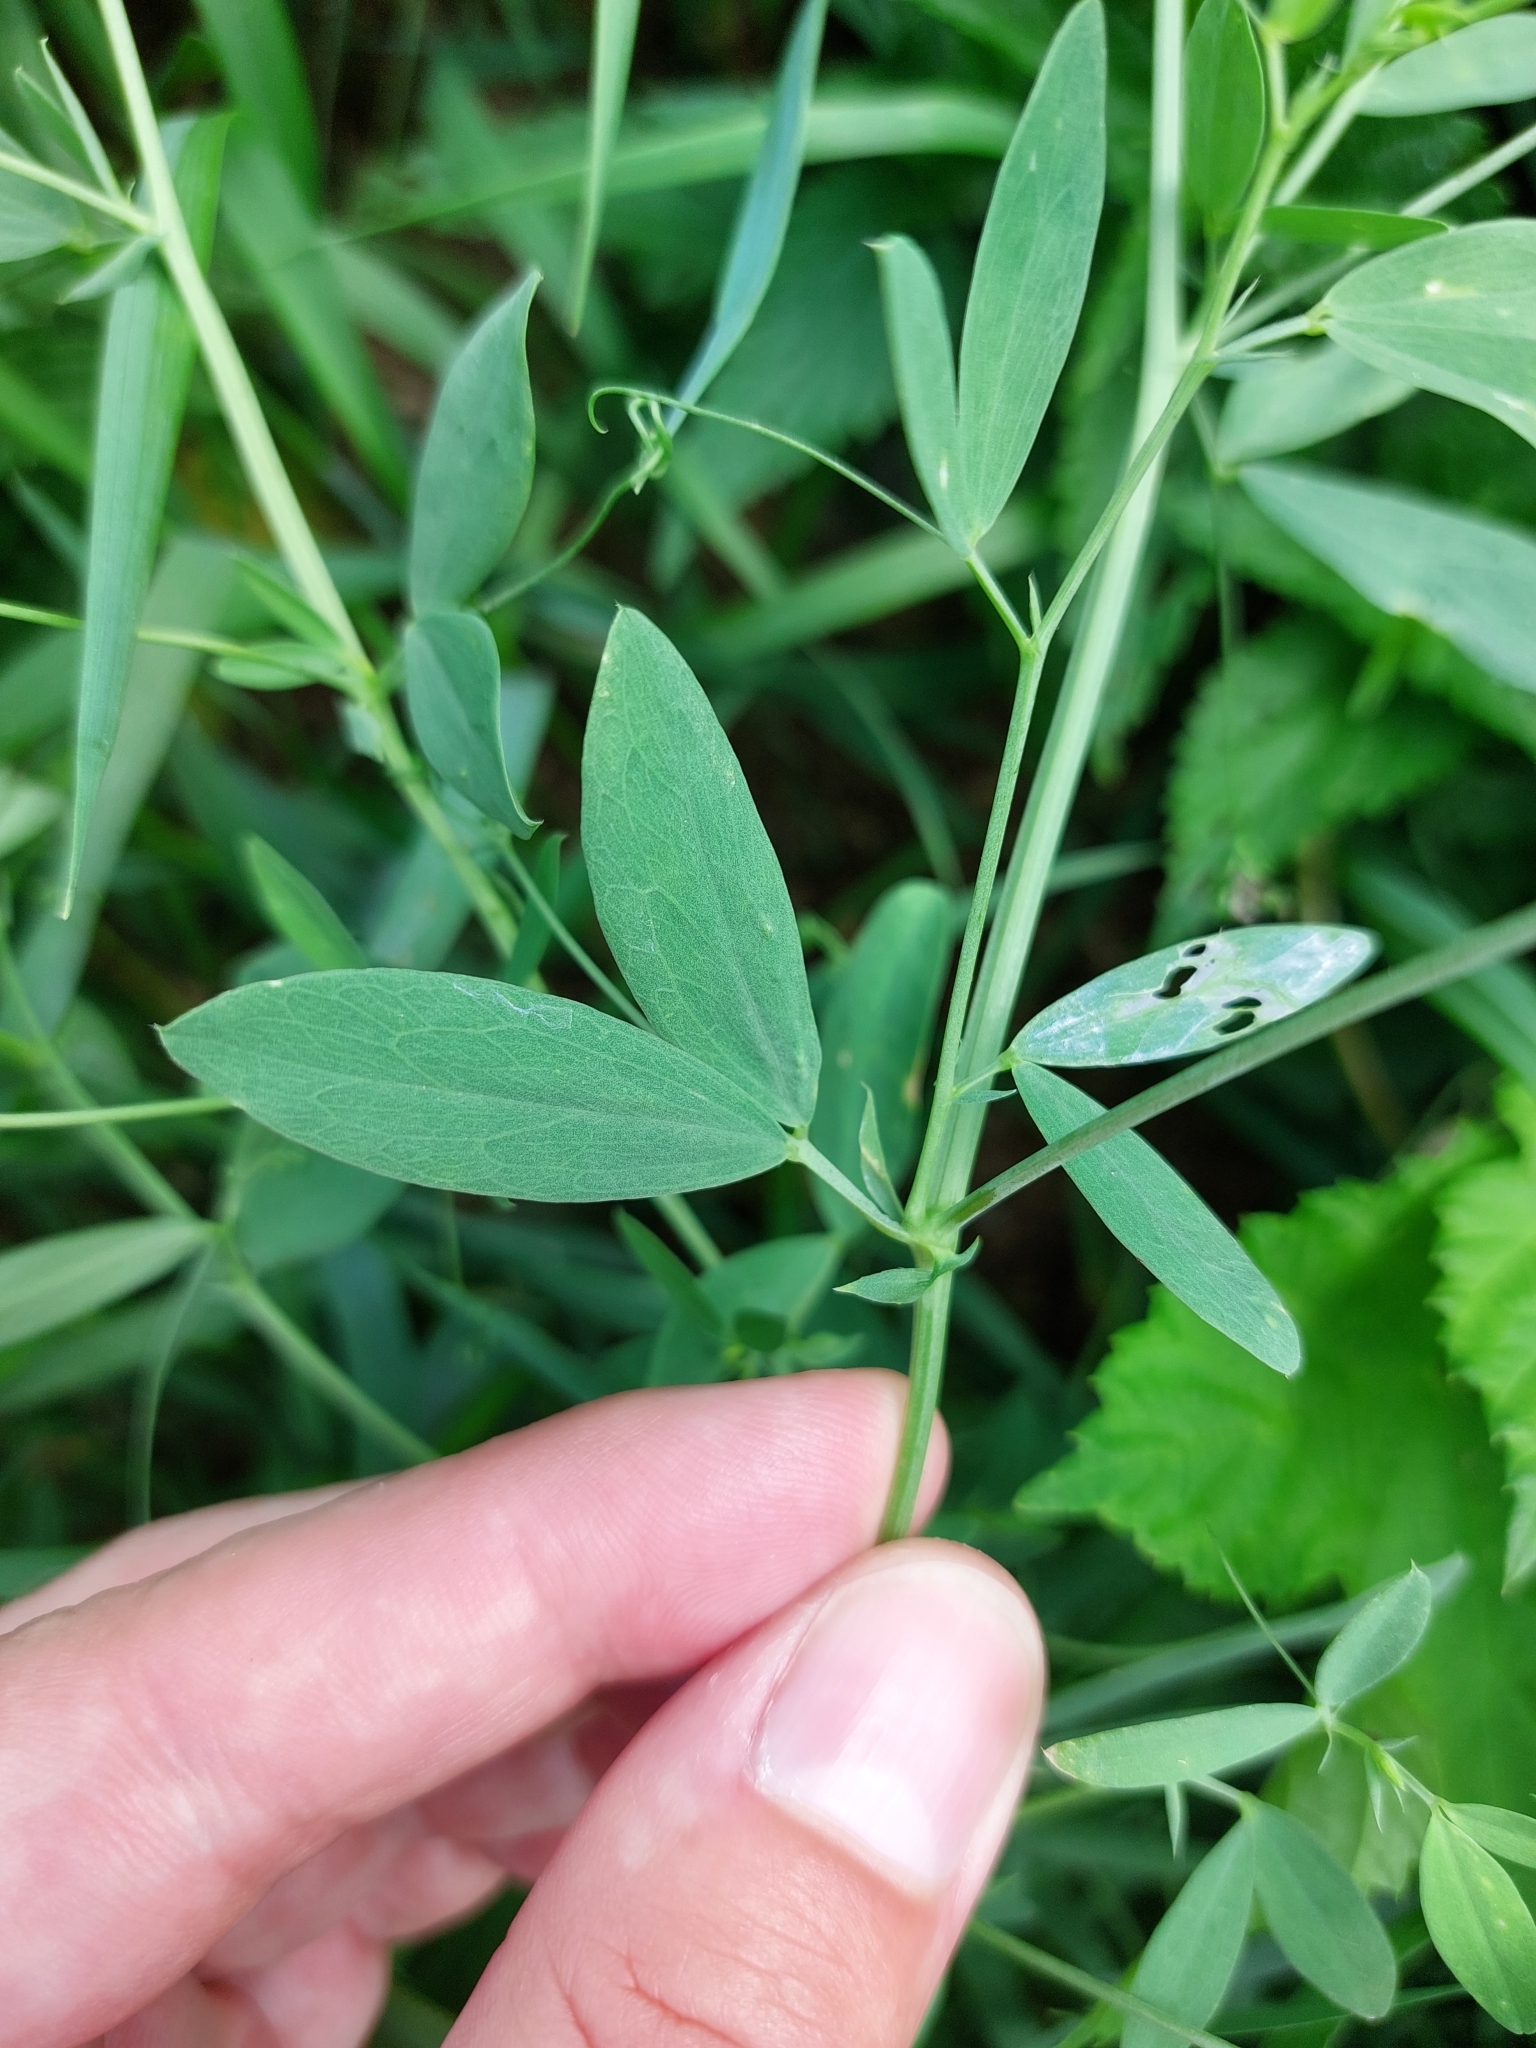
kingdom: Plantae
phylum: Tracheophyta
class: Magnoliopsida
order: Fabales
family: Fabaceae
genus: Lathyrus
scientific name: Lathyrus tuberosus
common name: Tuberous pea
